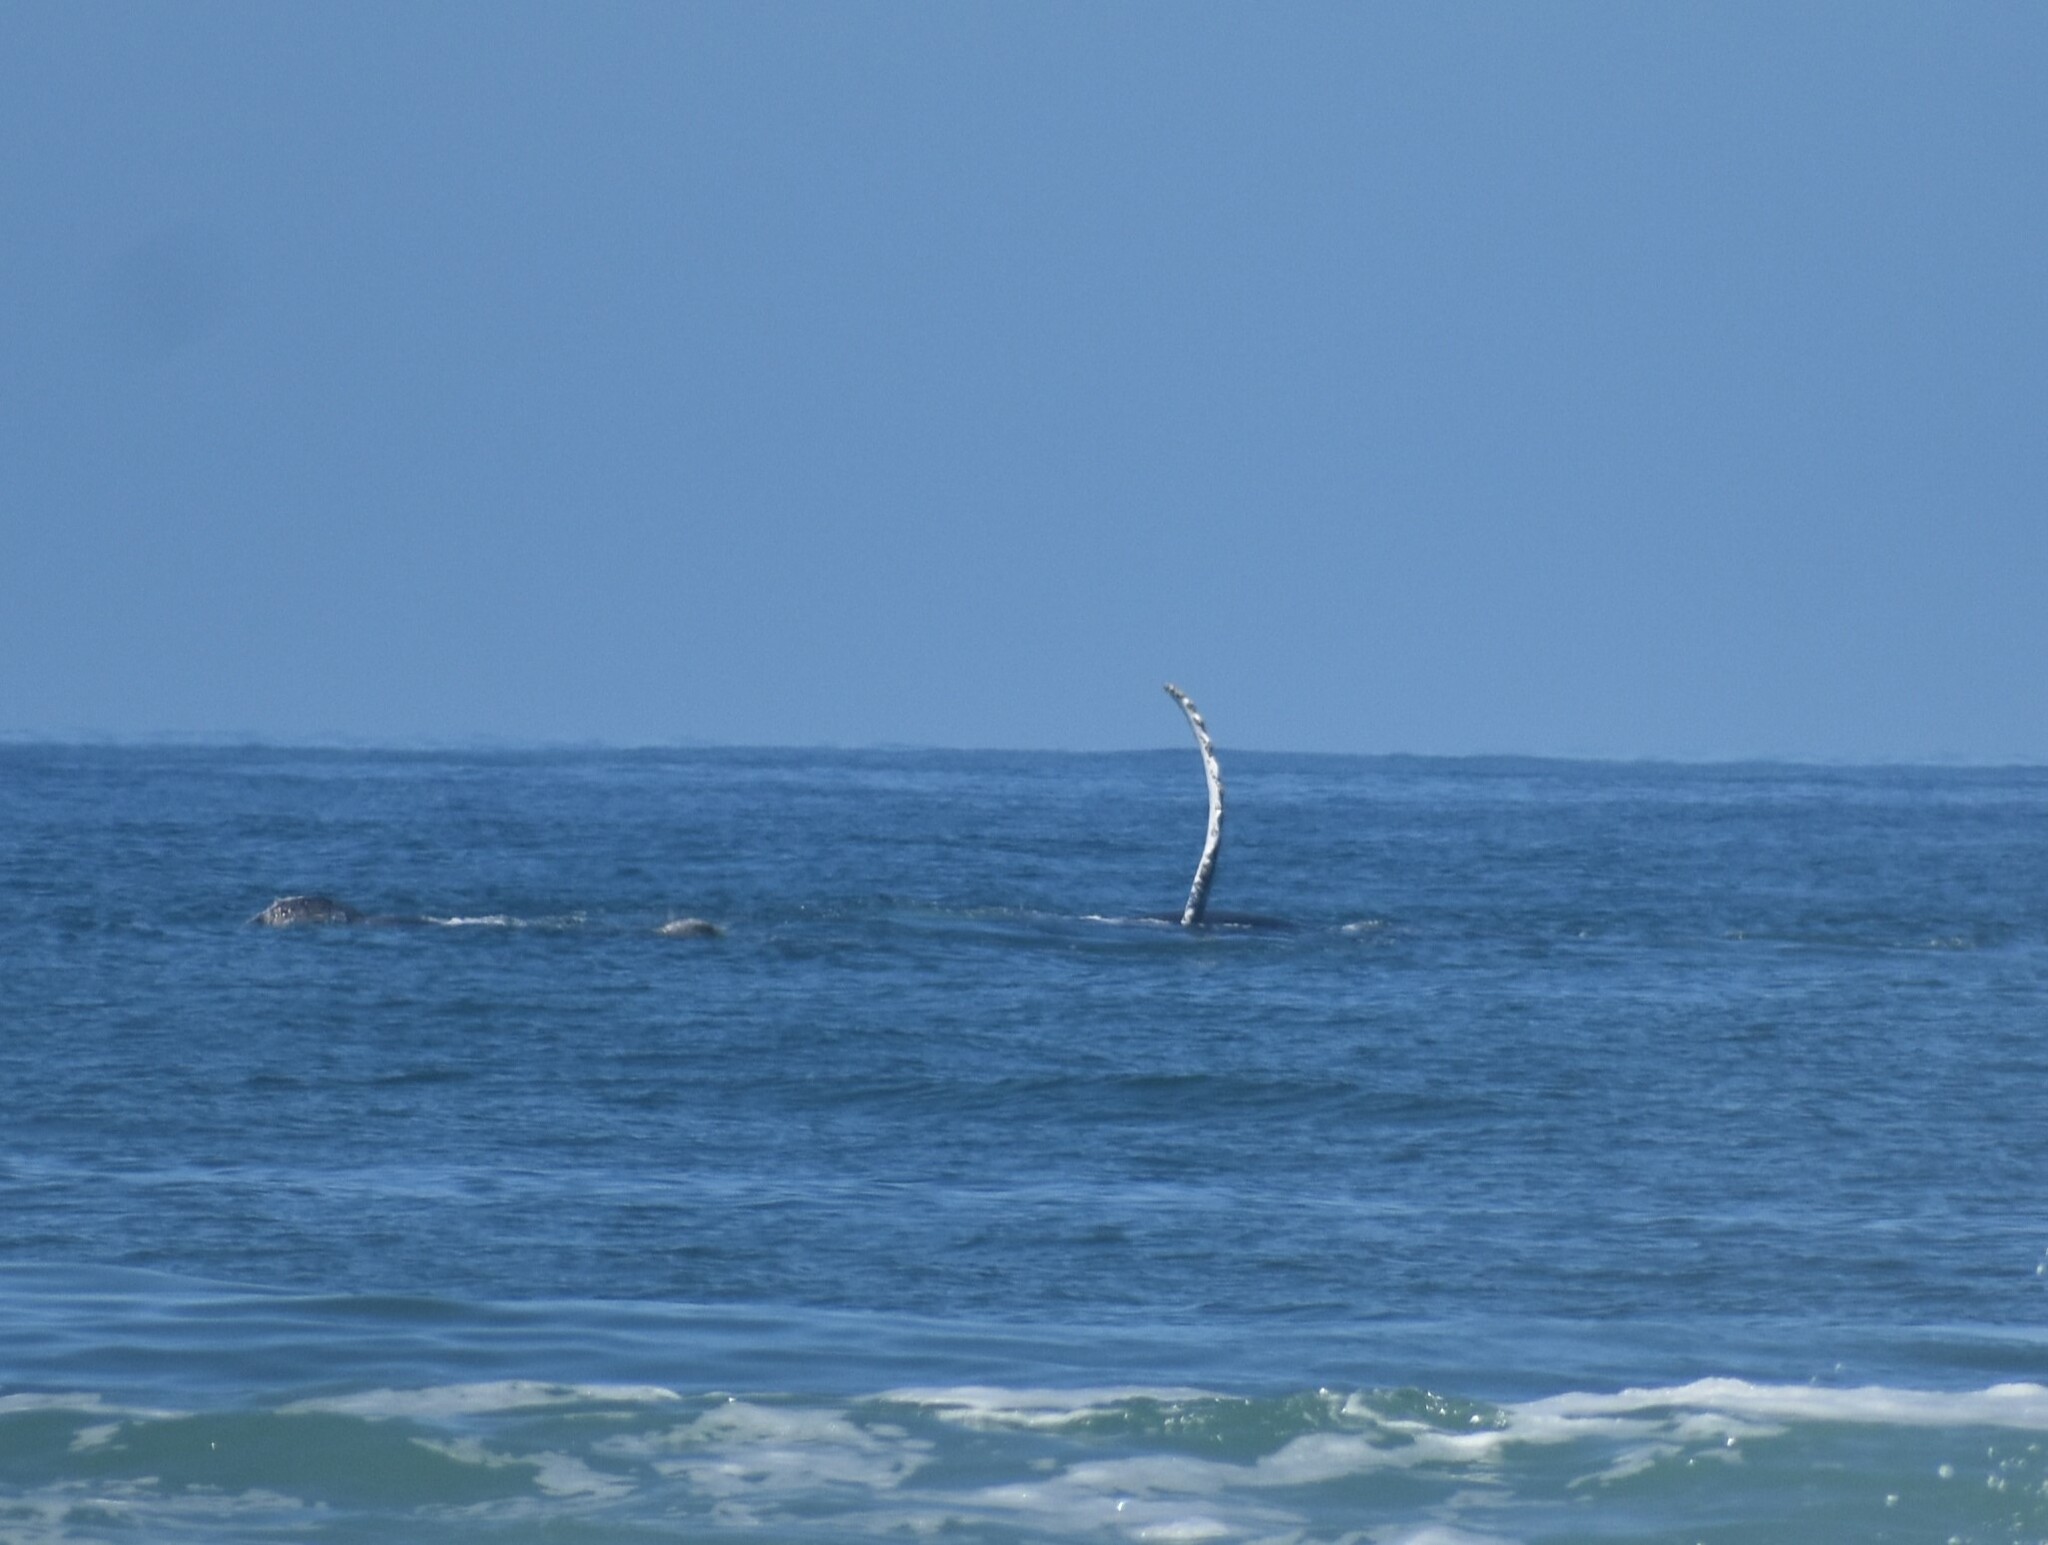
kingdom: Animalia
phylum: Chordata
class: Mammalia
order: Cetacea
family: Balaenopteridae
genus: Megaptera
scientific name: Megaptera novaeangliae
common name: Humpback whale
